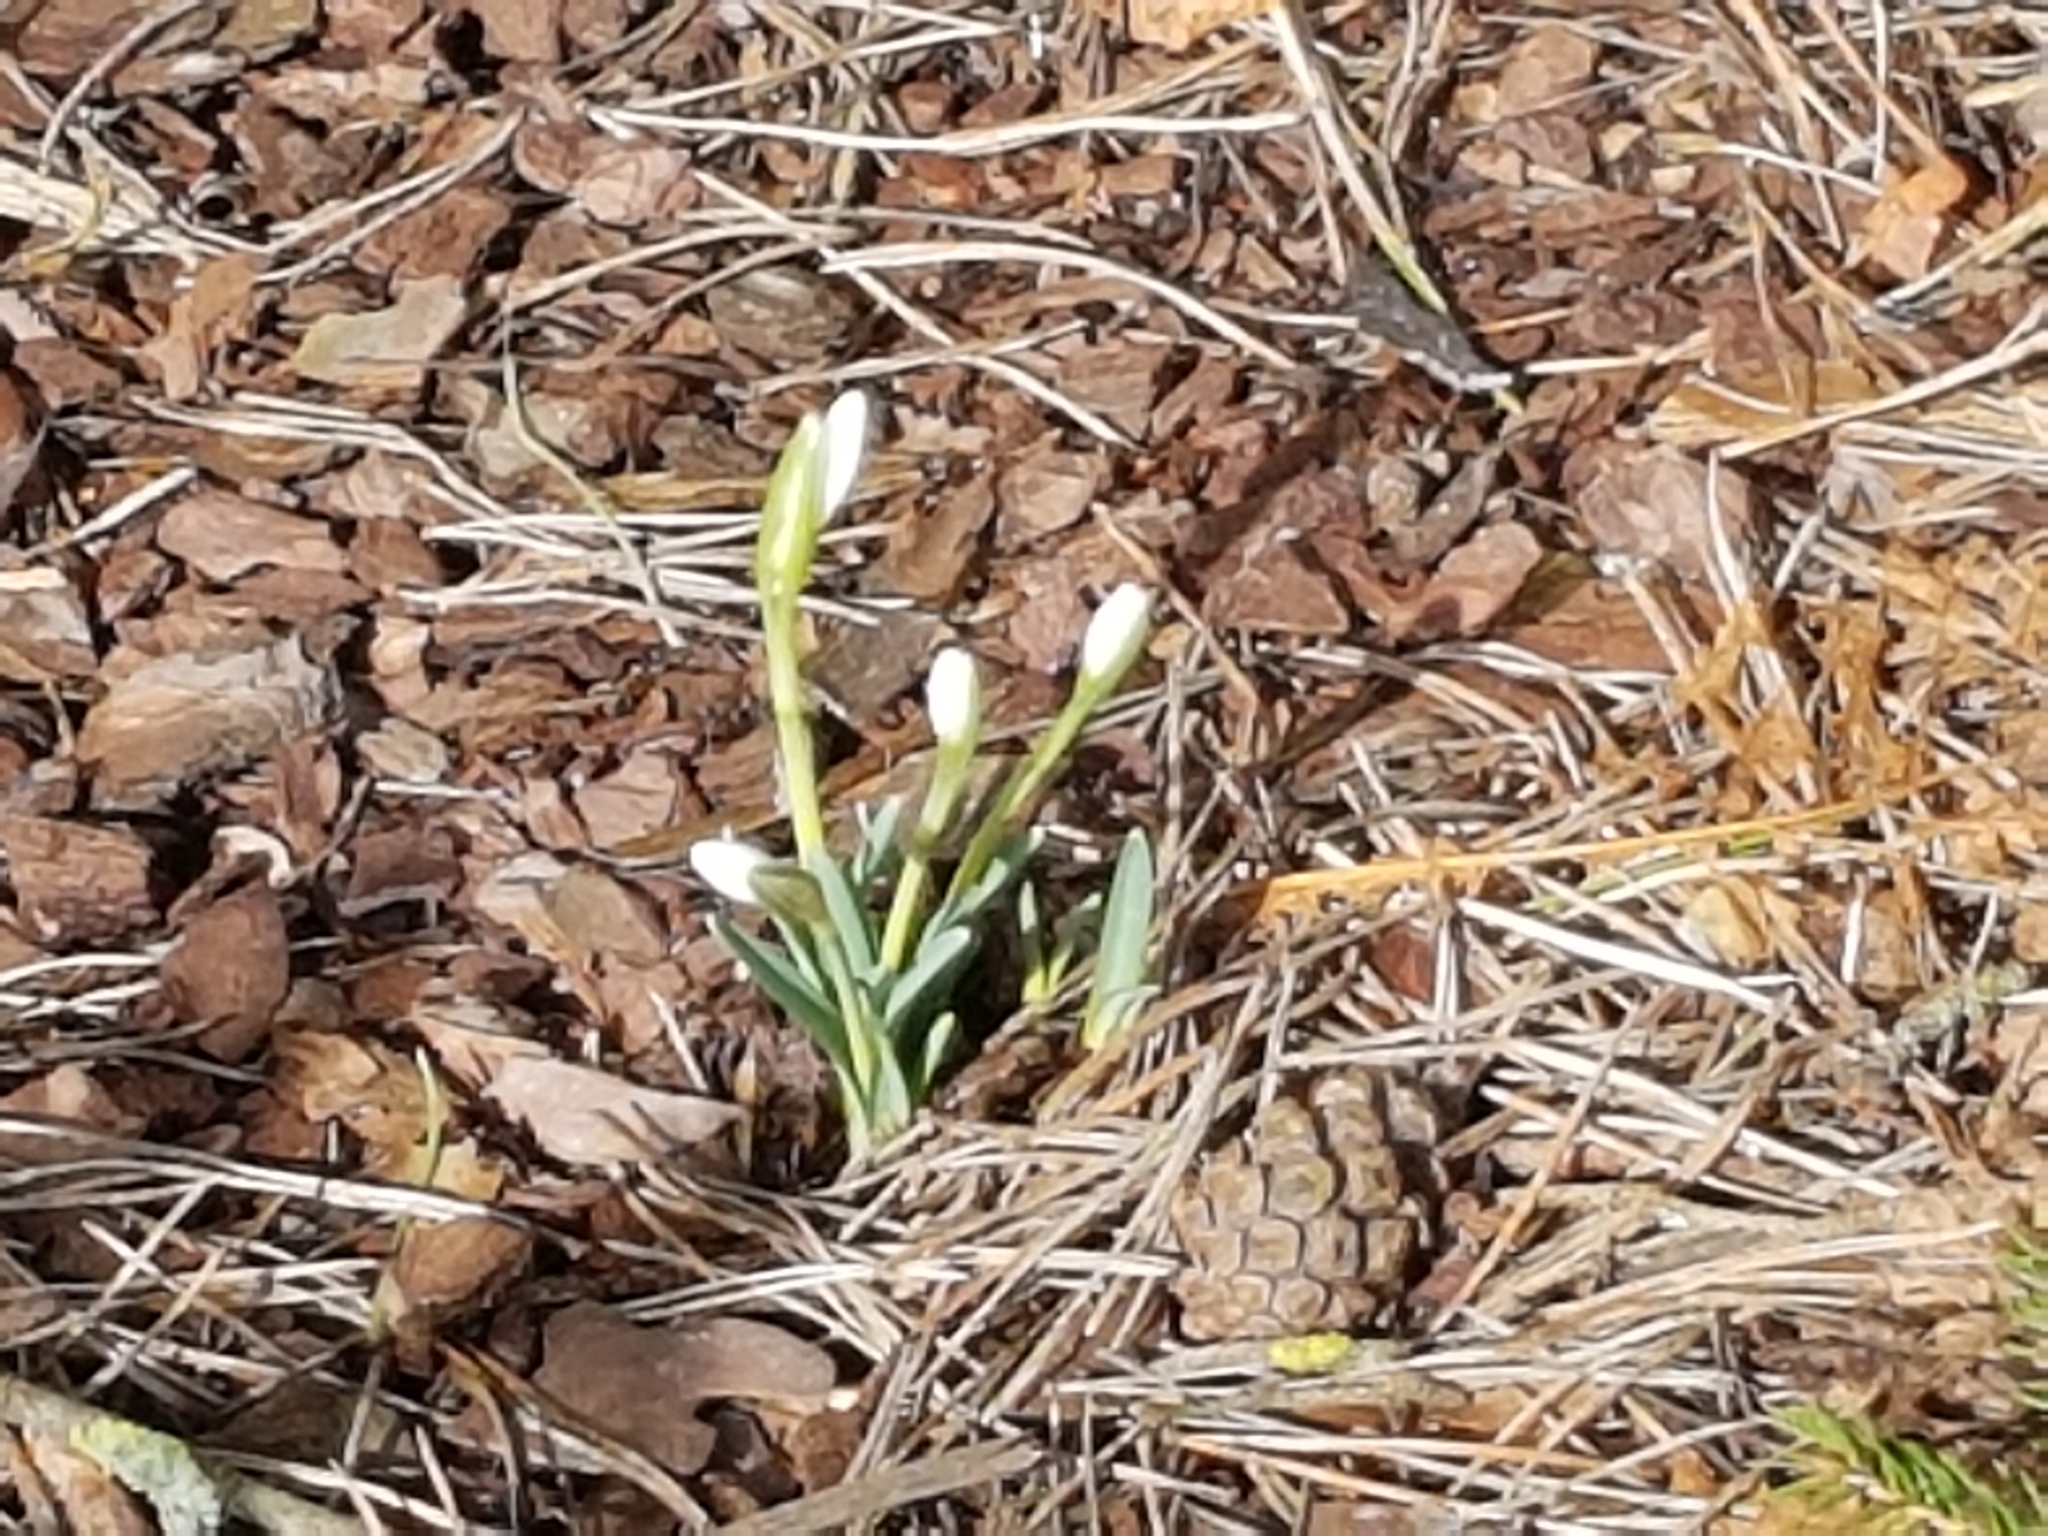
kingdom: Plantae
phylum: Tracheophyta
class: Liliopsida
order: Asparagales
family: Amaryllidaceae
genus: Galanthus
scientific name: Galanthus nivalis
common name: Snowdrop
